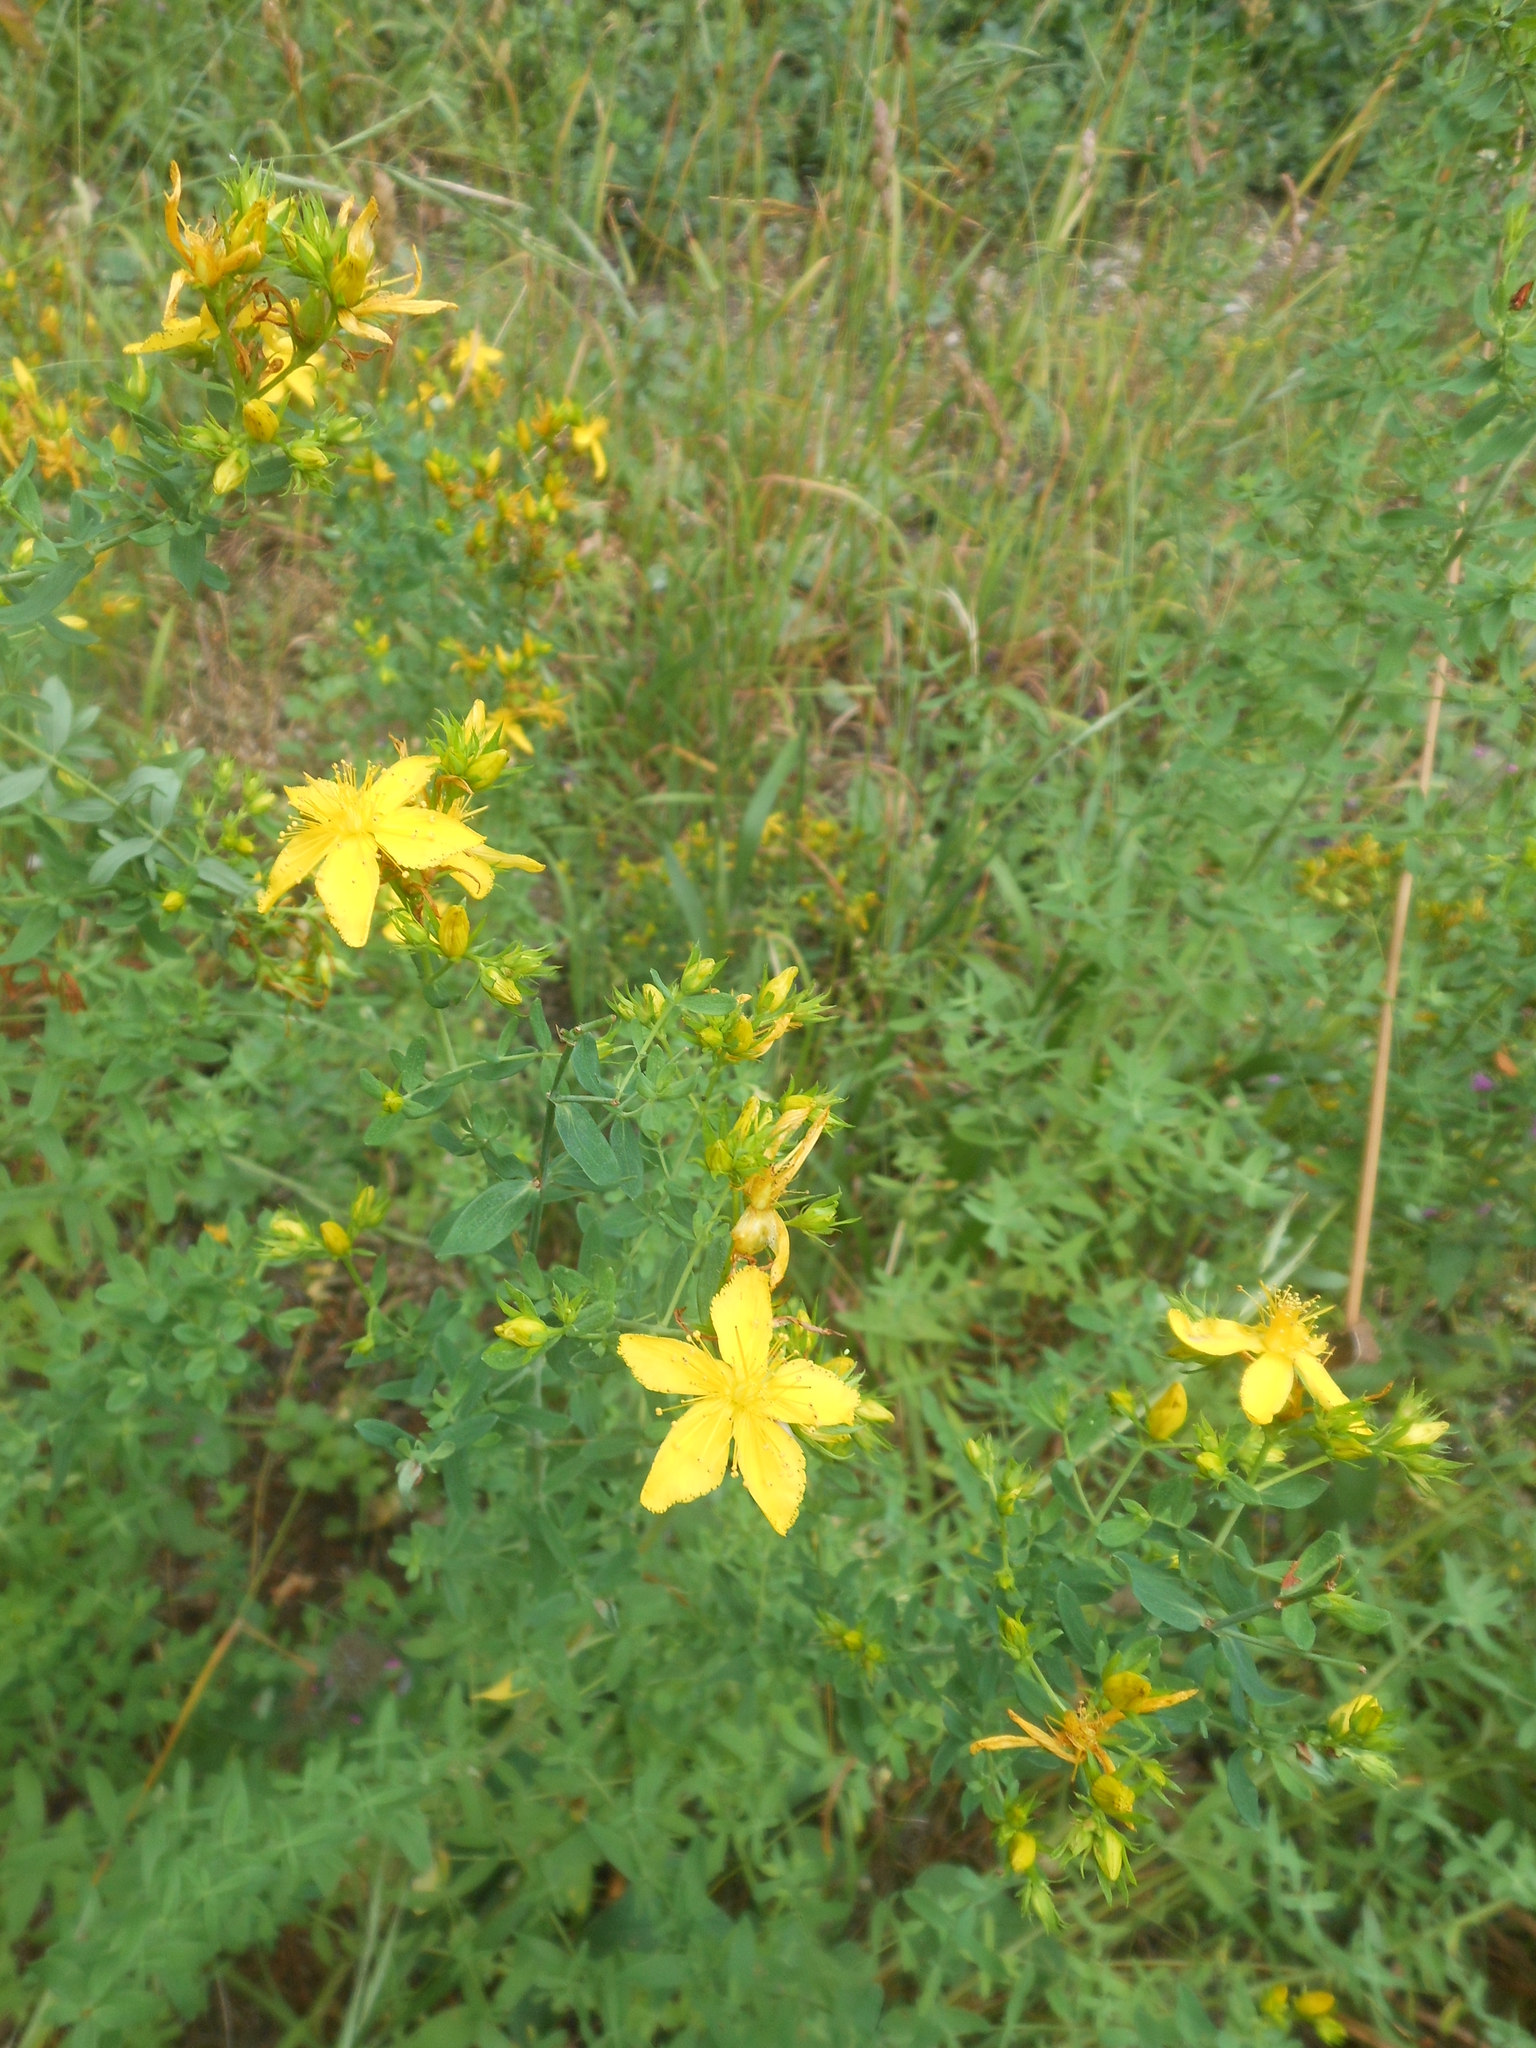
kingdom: Plantae
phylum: Tracheophyta
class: Magnoliopsida
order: Malpighiales
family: Hypericaceae
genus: Hypericum
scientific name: Hypericum perforatum
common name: Common st. johnswort
